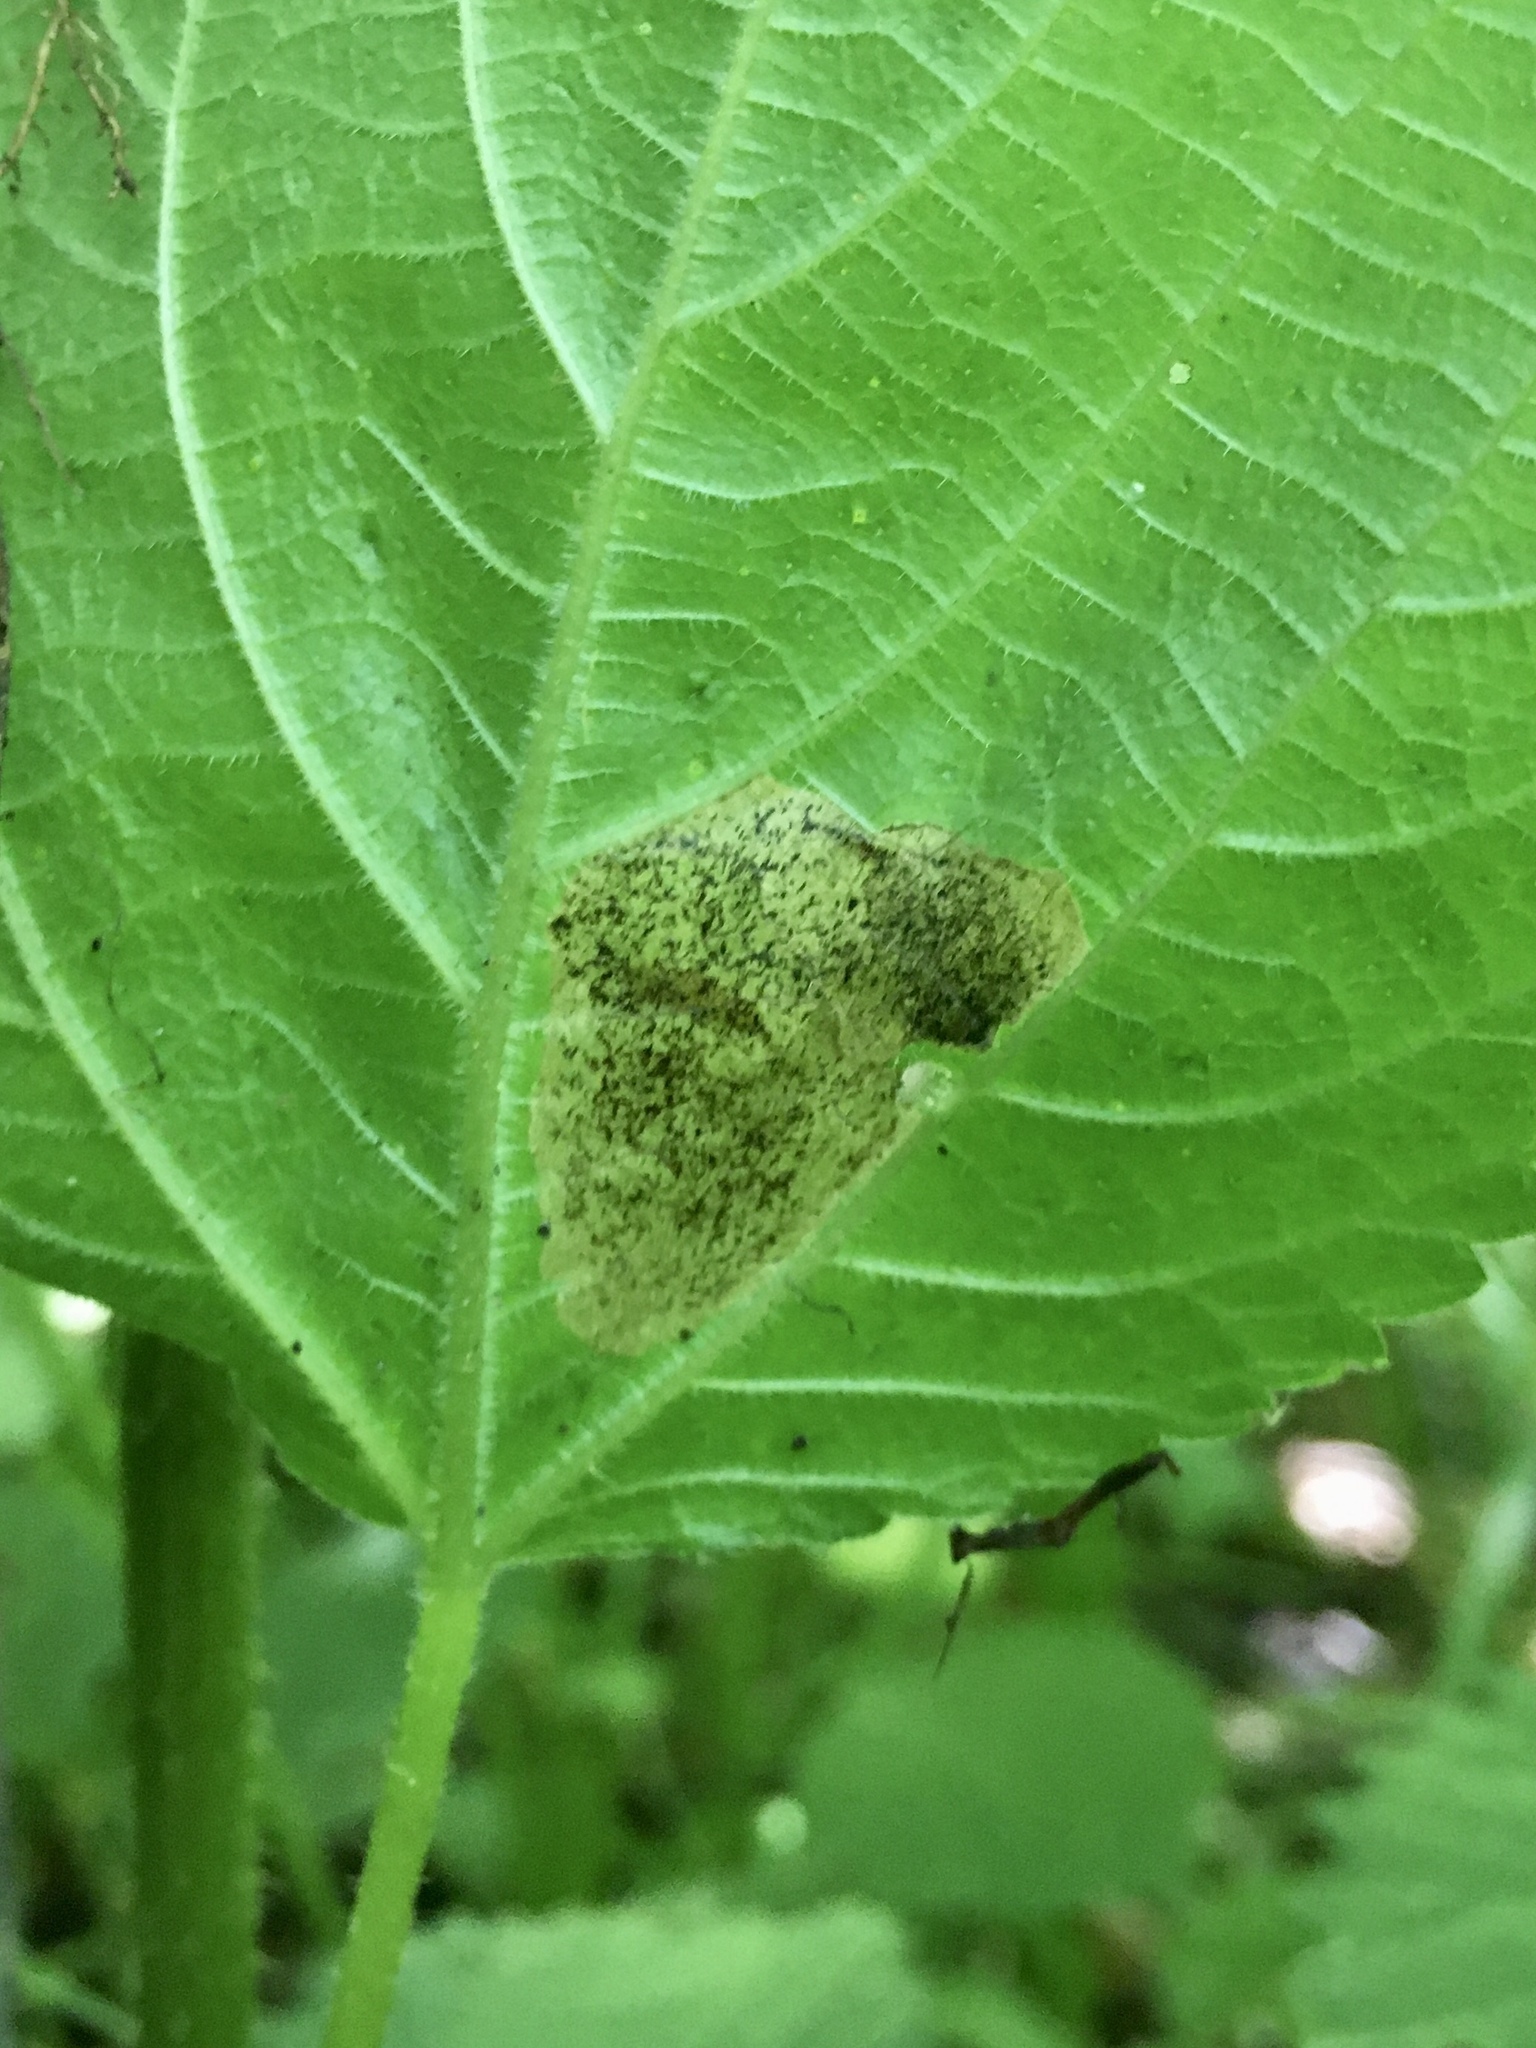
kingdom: Animalia
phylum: Arthropoda
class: Insecta
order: Coleoptera
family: Chrysomelidae
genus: Sumitrosis
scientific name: Sumitrosis rosea
